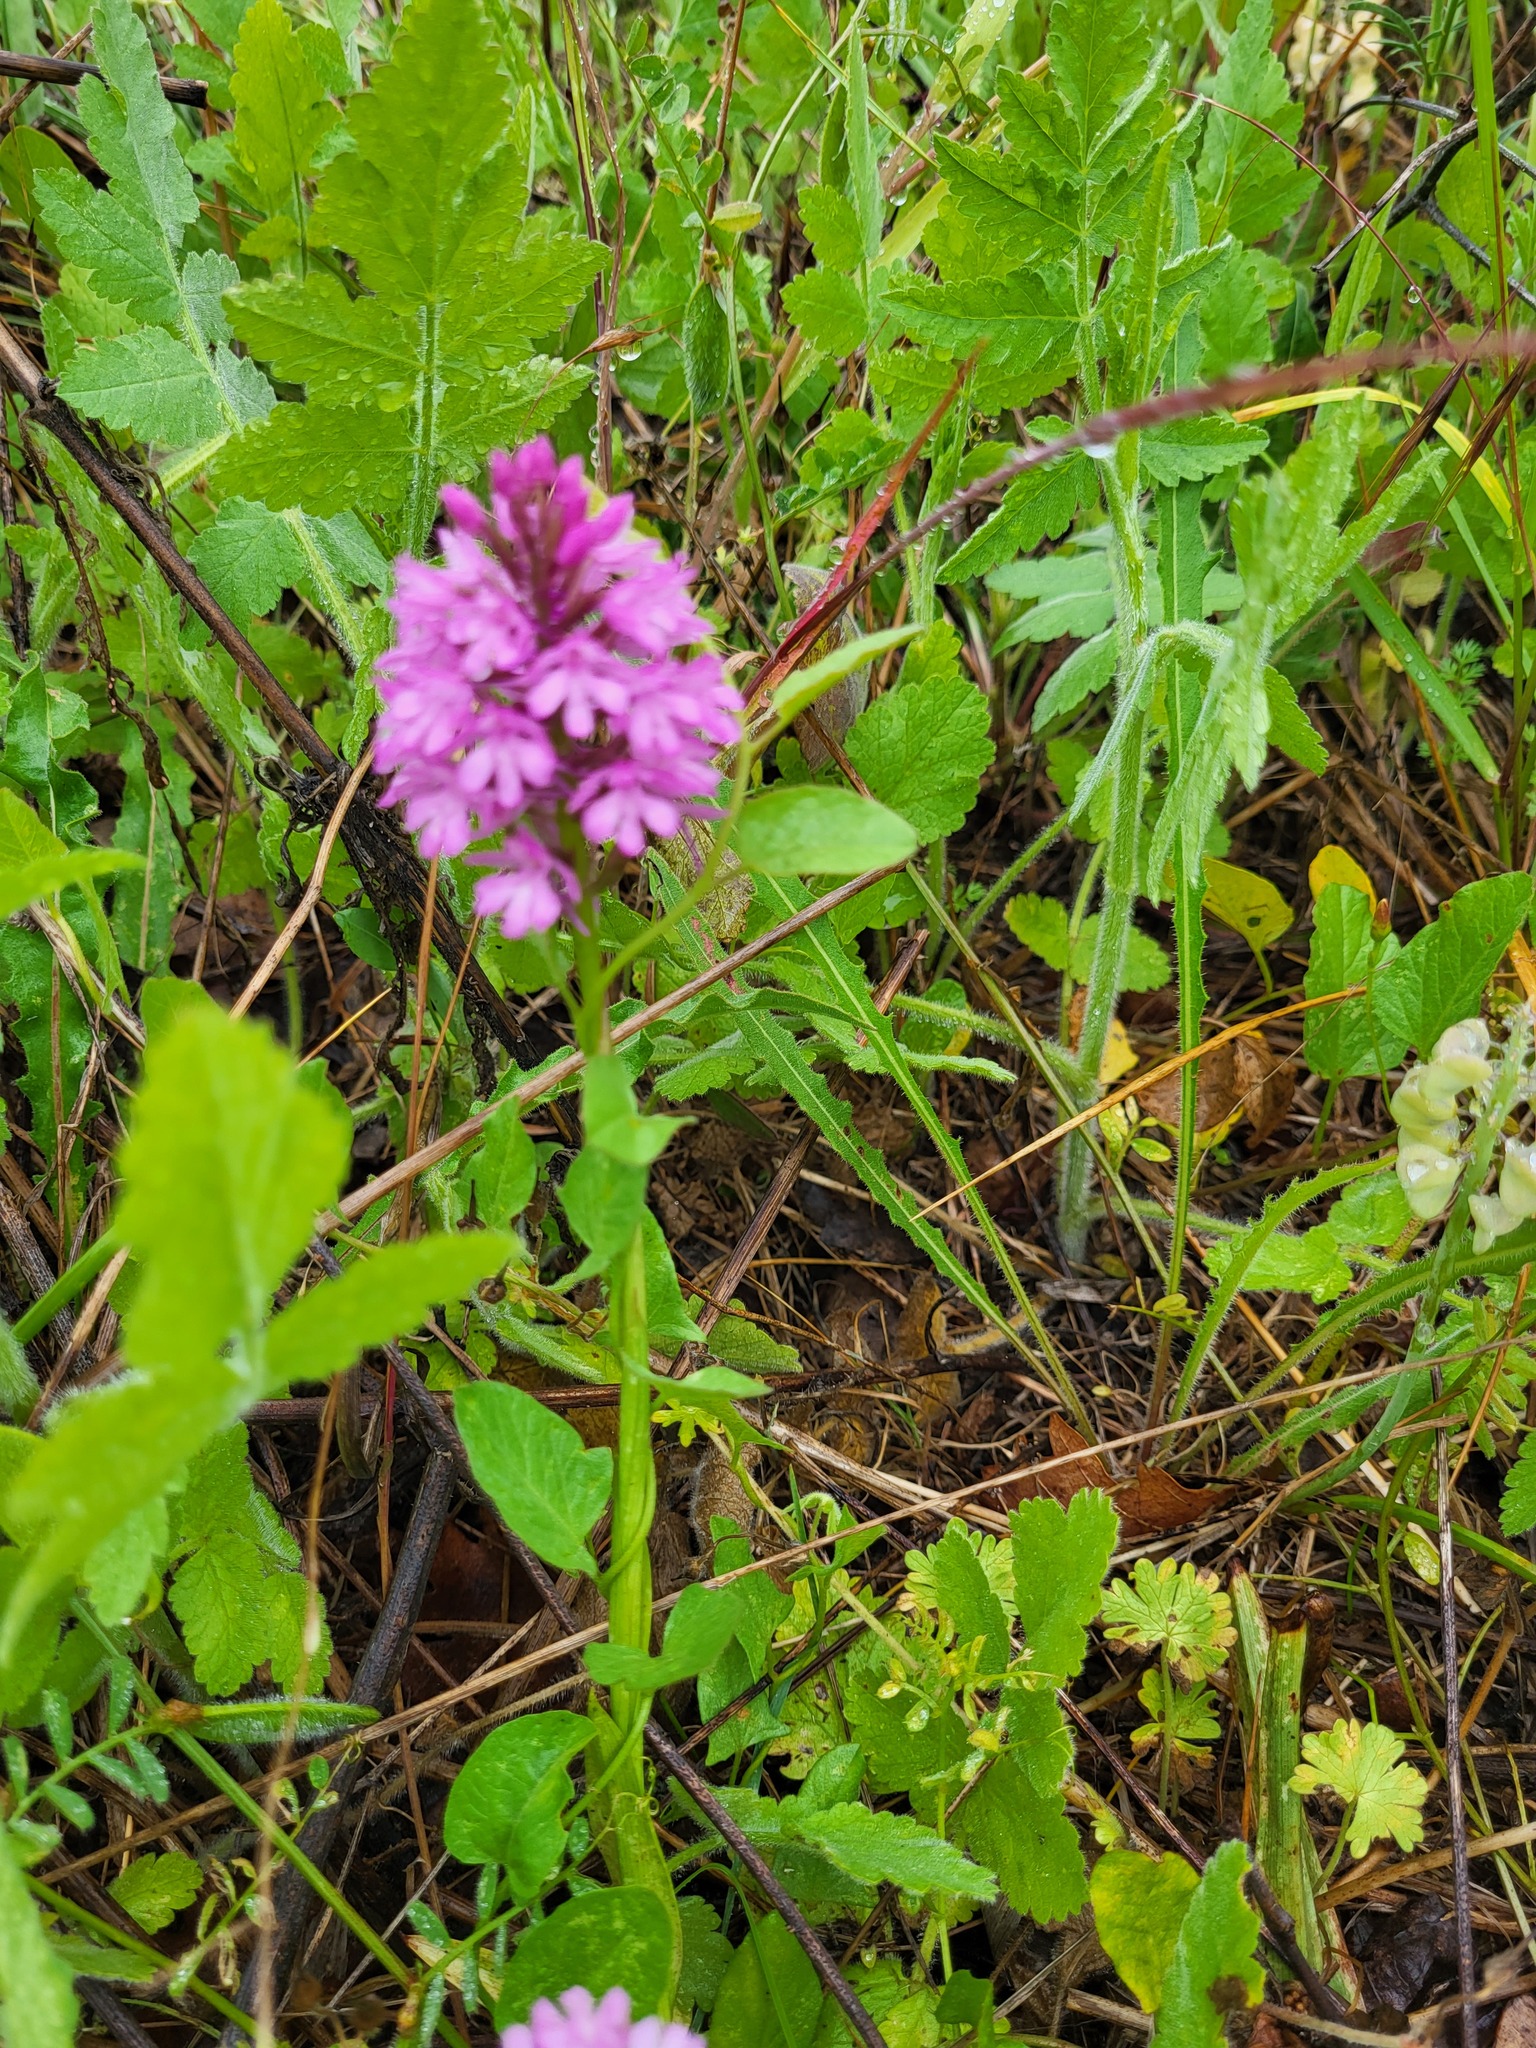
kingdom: Plantae
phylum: Tracheophyta
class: Liliopsida
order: Asparagales
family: Orchidaceae
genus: Anacamptis
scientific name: Anacamptis pyramidalis
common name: Pyramidal orchid
